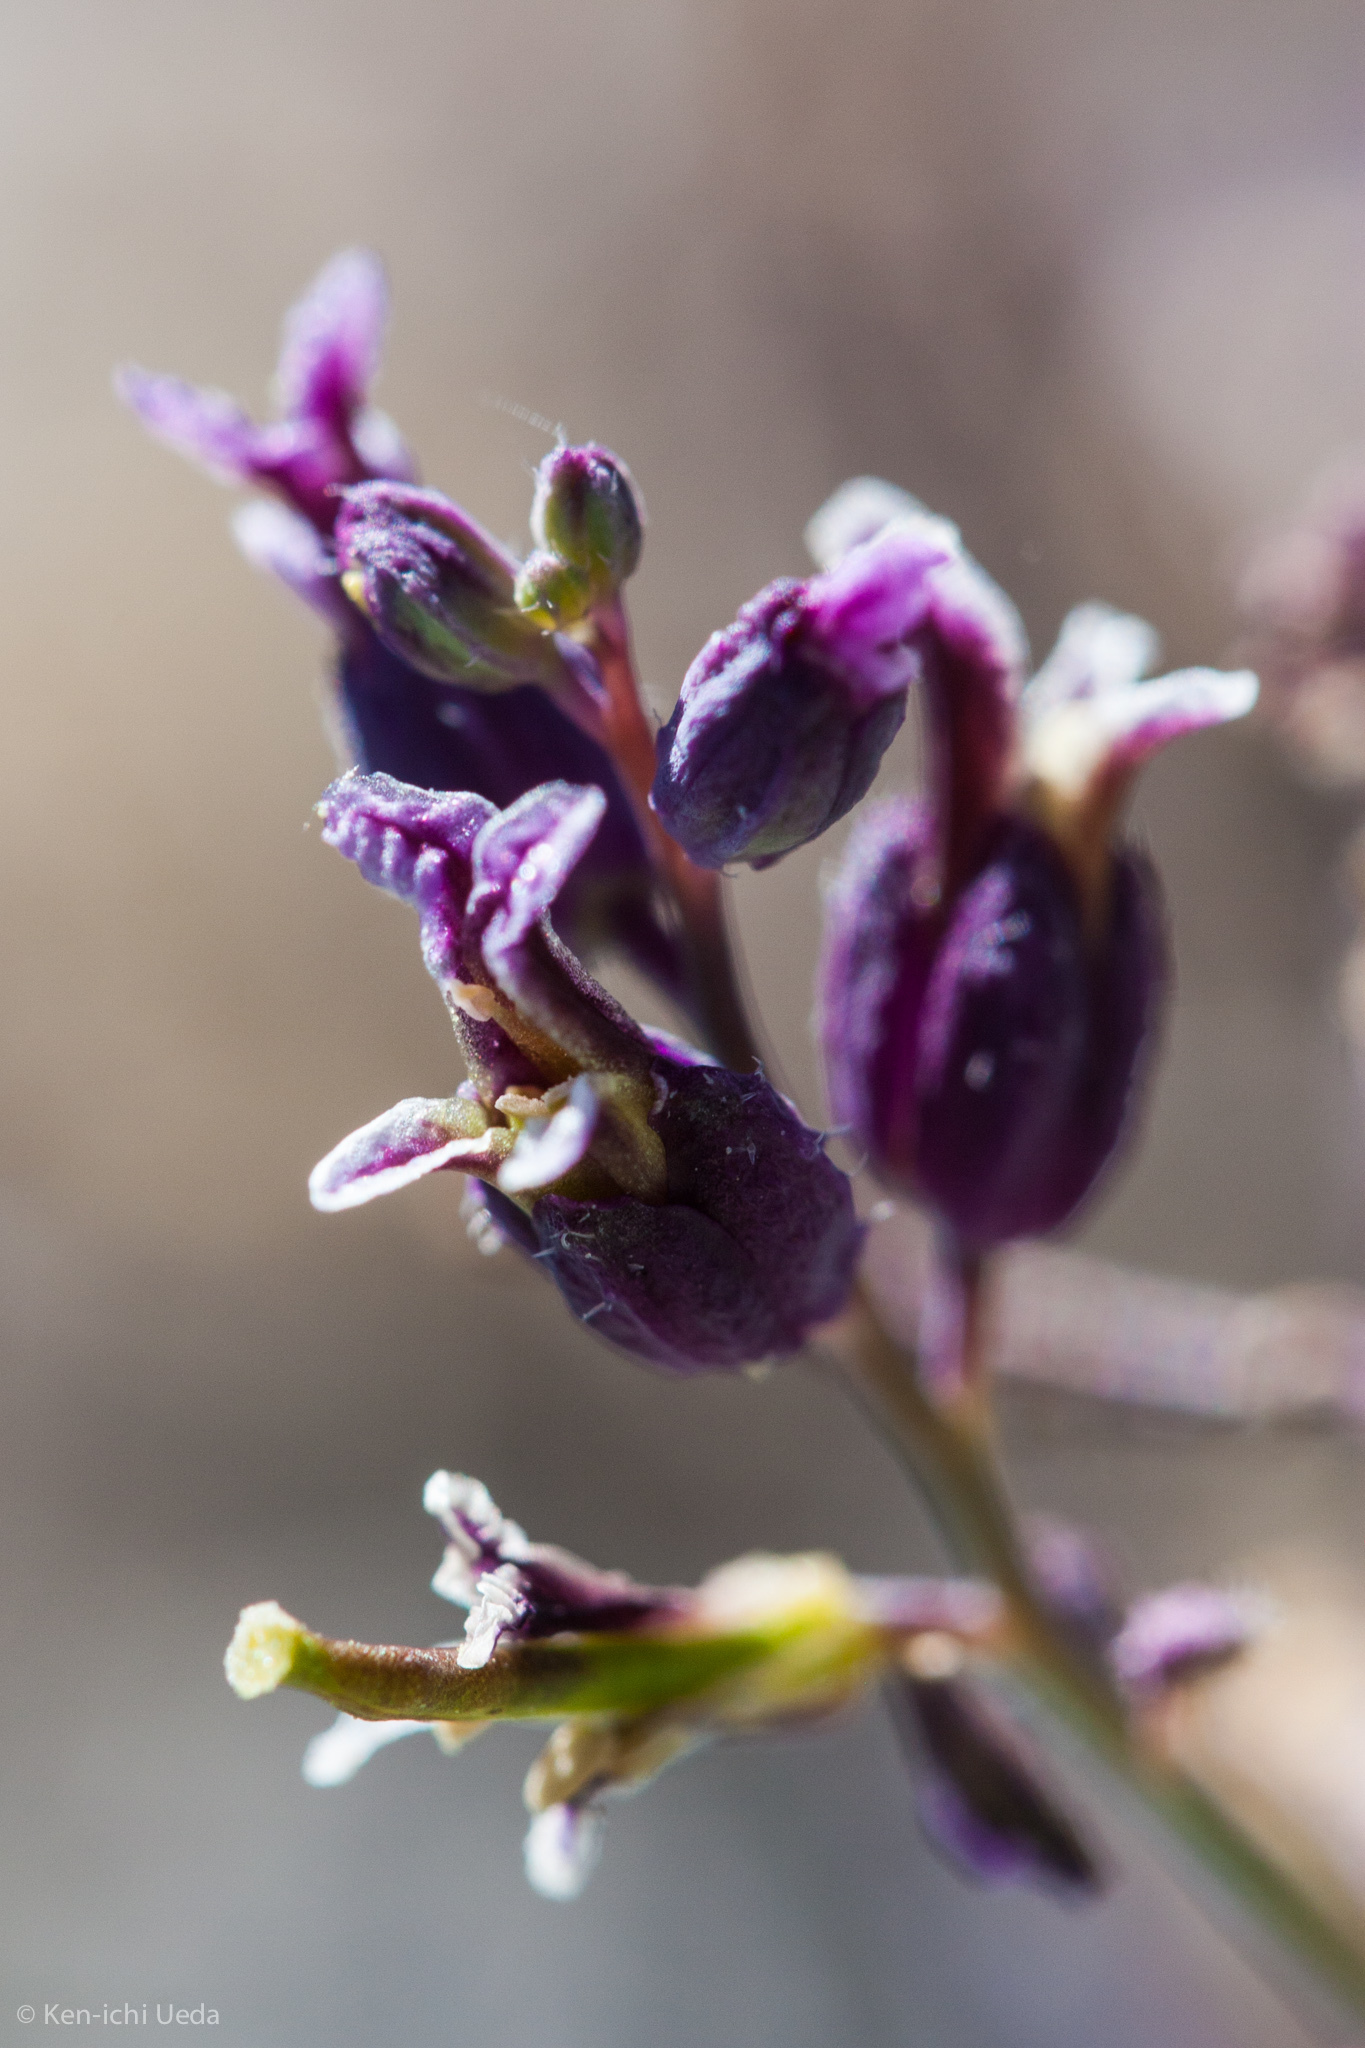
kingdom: Plantae
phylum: Tracheophyta
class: Magnoliopsida
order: Brassicales
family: Brassicaceae
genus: Streptanthus
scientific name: Streptanthus glandulosus
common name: Jewel-flower
